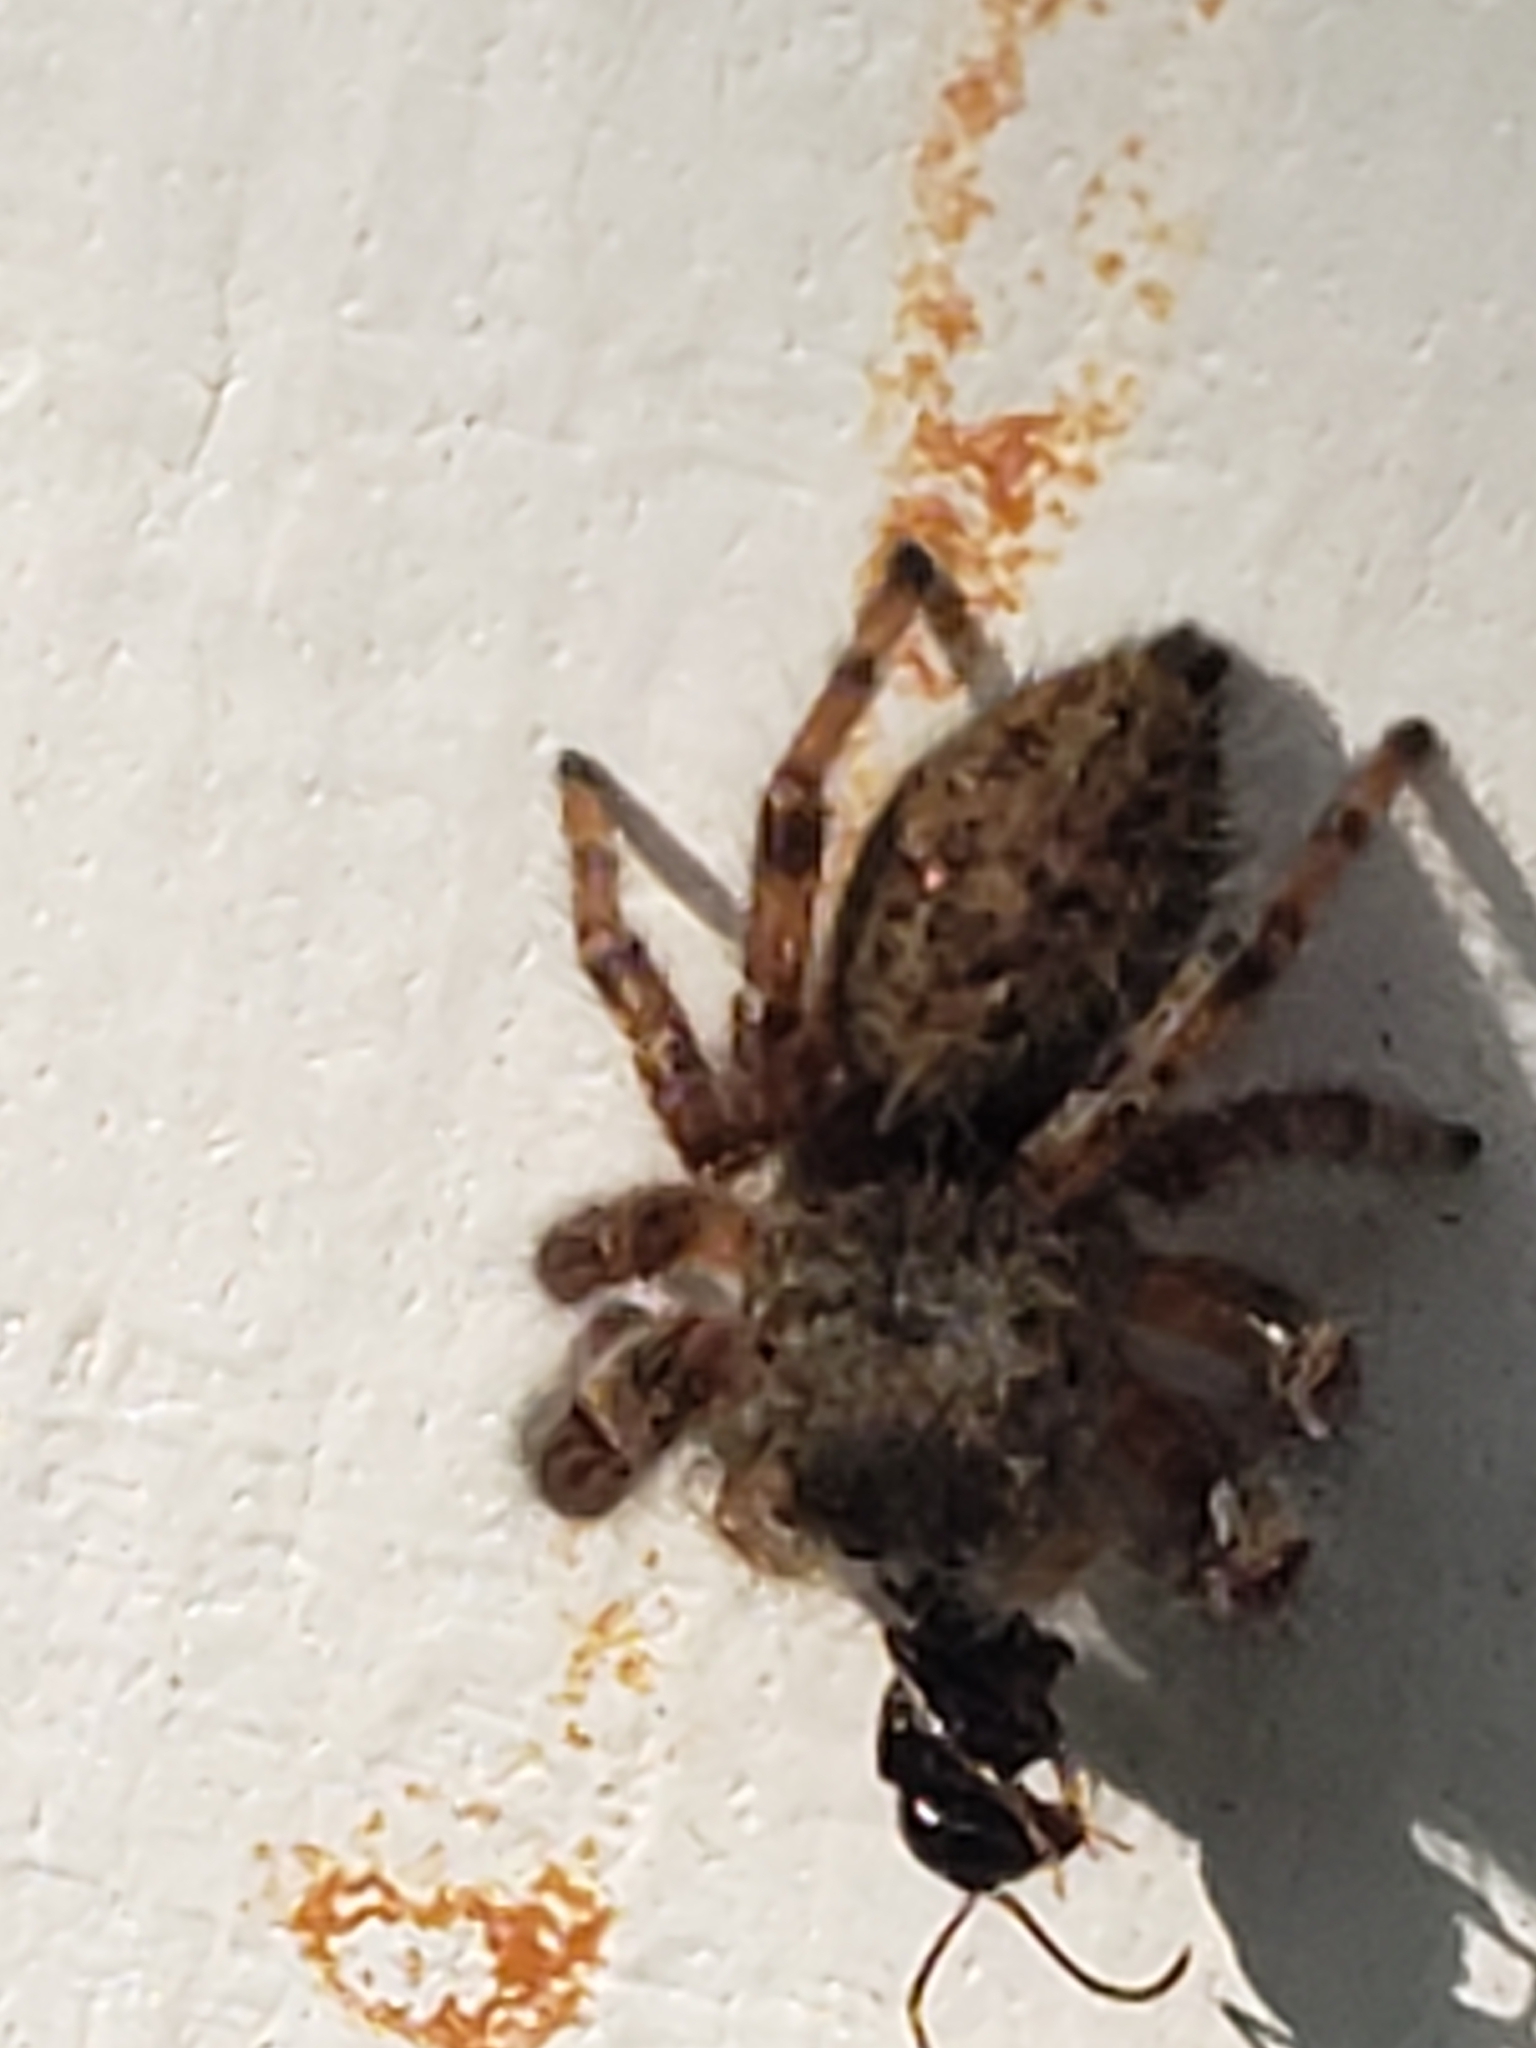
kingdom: Animalia
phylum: Arthropoda
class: Arachnida
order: Araneae
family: Salticidae
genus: Phidippus
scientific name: Phidippus princeps
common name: Grayish jumping spider
